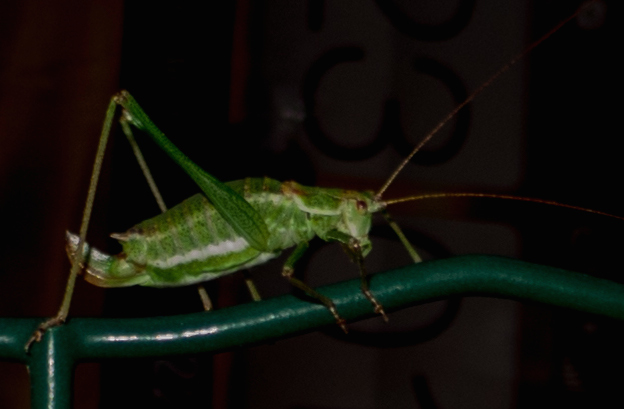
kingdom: Animalia
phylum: Arthropoda
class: Insecta
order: Orthoptera
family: Tettigoniidae
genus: Leptophyes
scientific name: Leptophyes albovittata
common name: Striped bush-cricket
